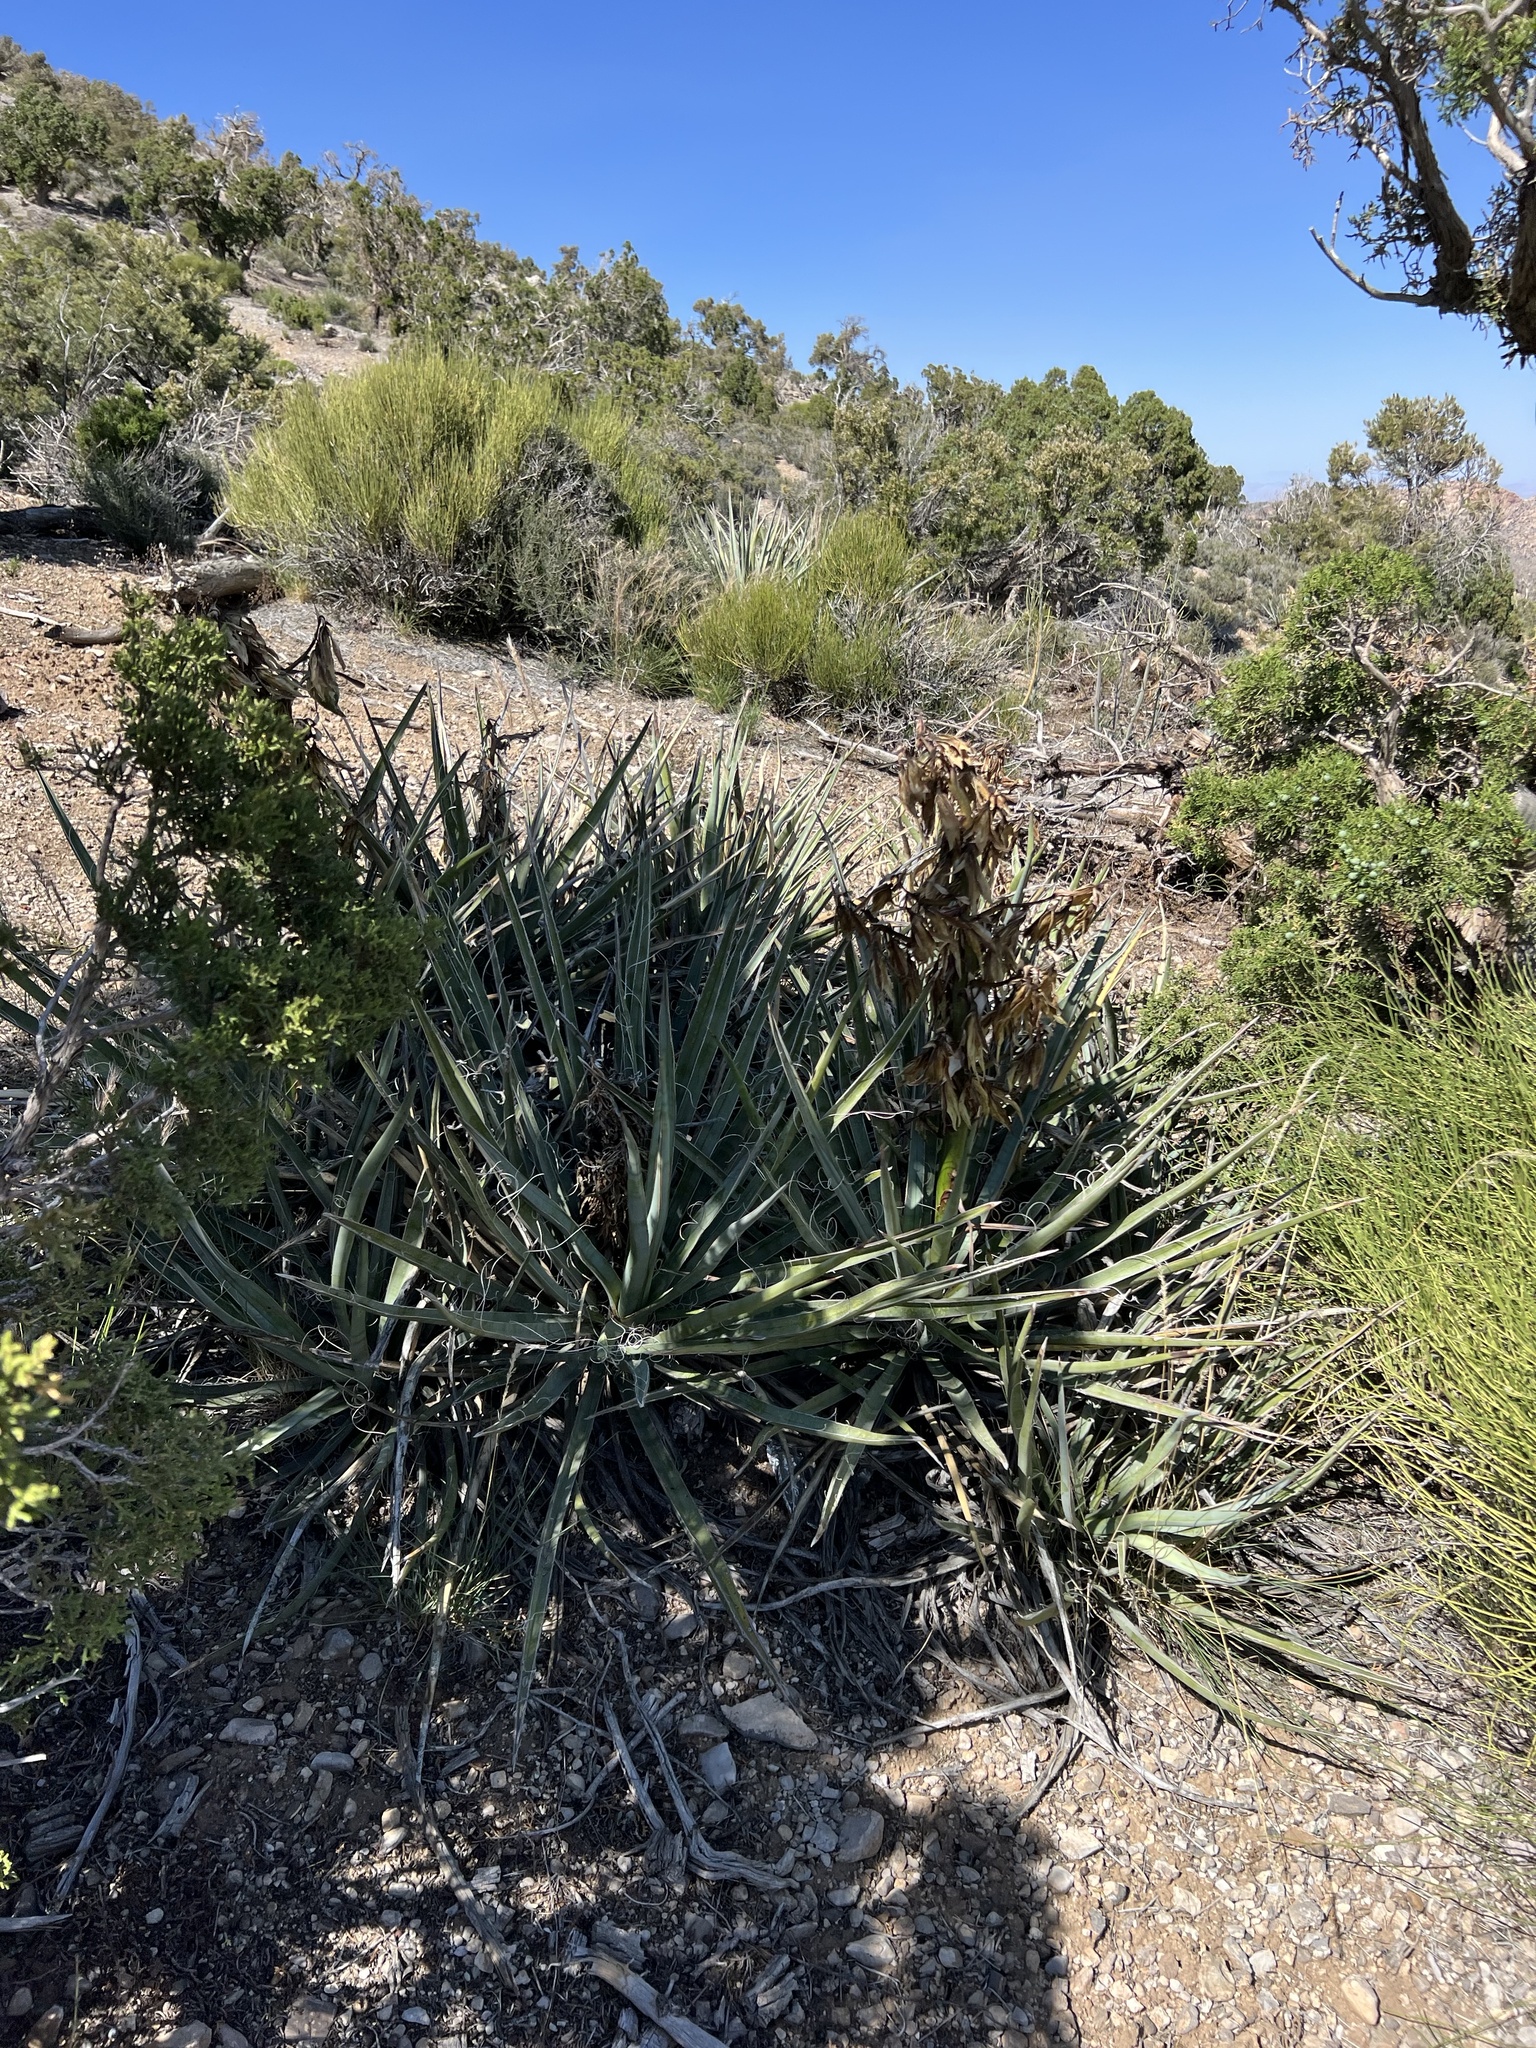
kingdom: Plantae
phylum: Tracheophyta
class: Liliopsida
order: Asparagales
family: Asparagaceae
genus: Yucca
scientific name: Yucca baccata
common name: Banana yucca
